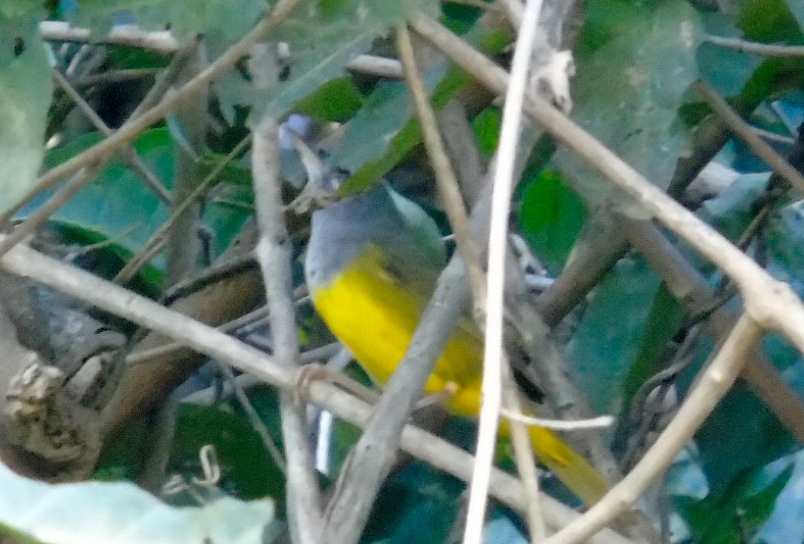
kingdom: Animalia
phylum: Chordata
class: Aves
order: Passeriformes
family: Parulidae
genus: Geothlypis
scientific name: Geothlypis tolmiei
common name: Macgillivray's warbler
